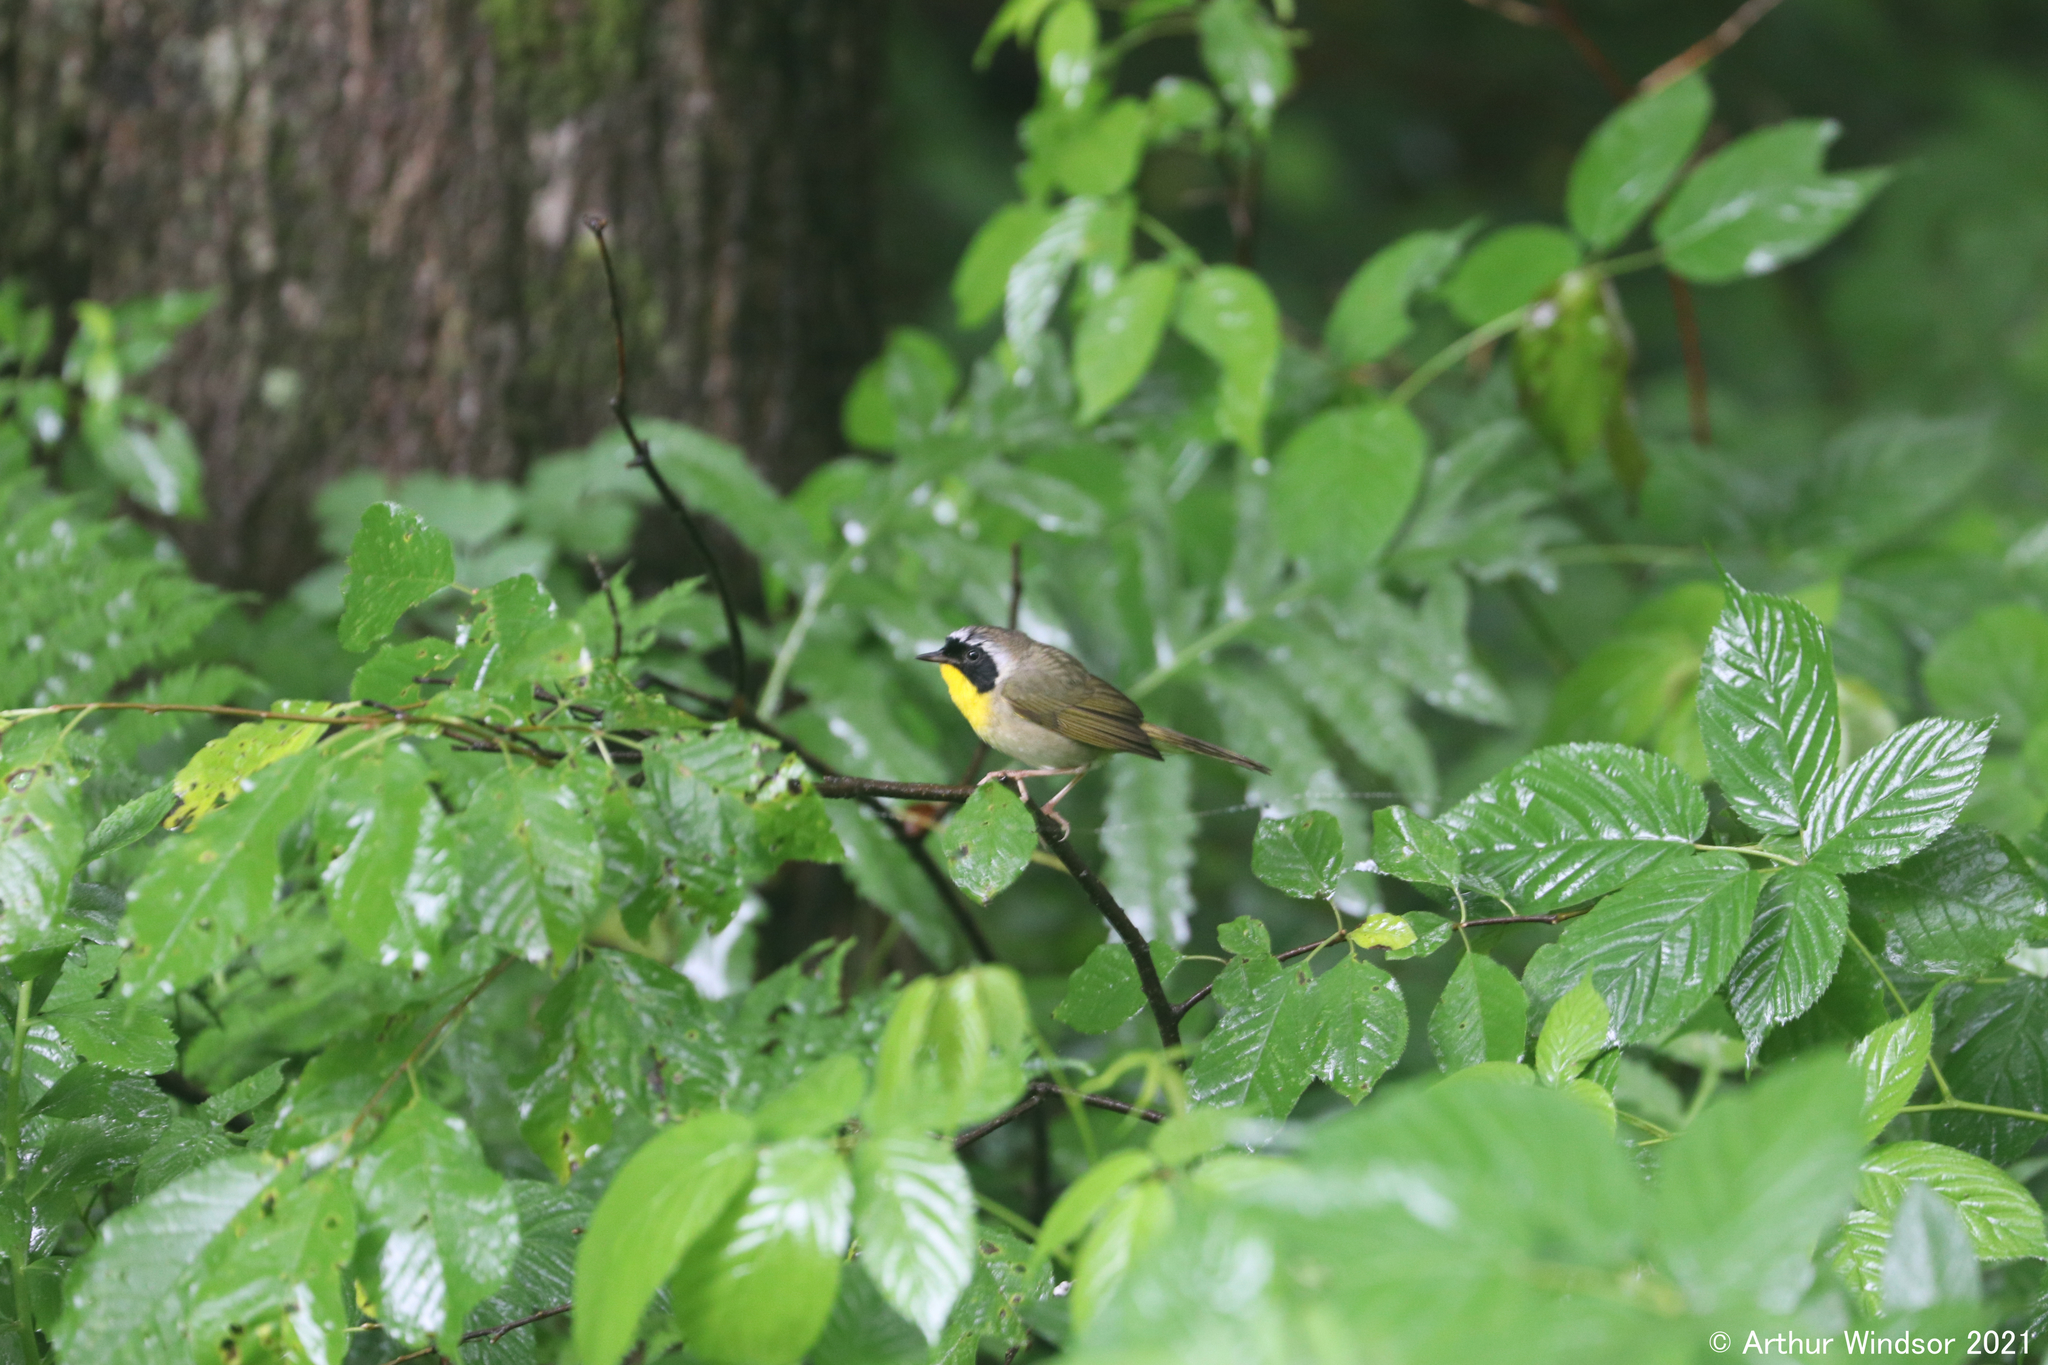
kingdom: Animalia
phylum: Chordata
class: Aves
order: Passeriformes
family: Parulidae
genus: Geothlypis
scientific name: Geothlypis trichas
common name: Common yellowthroat
